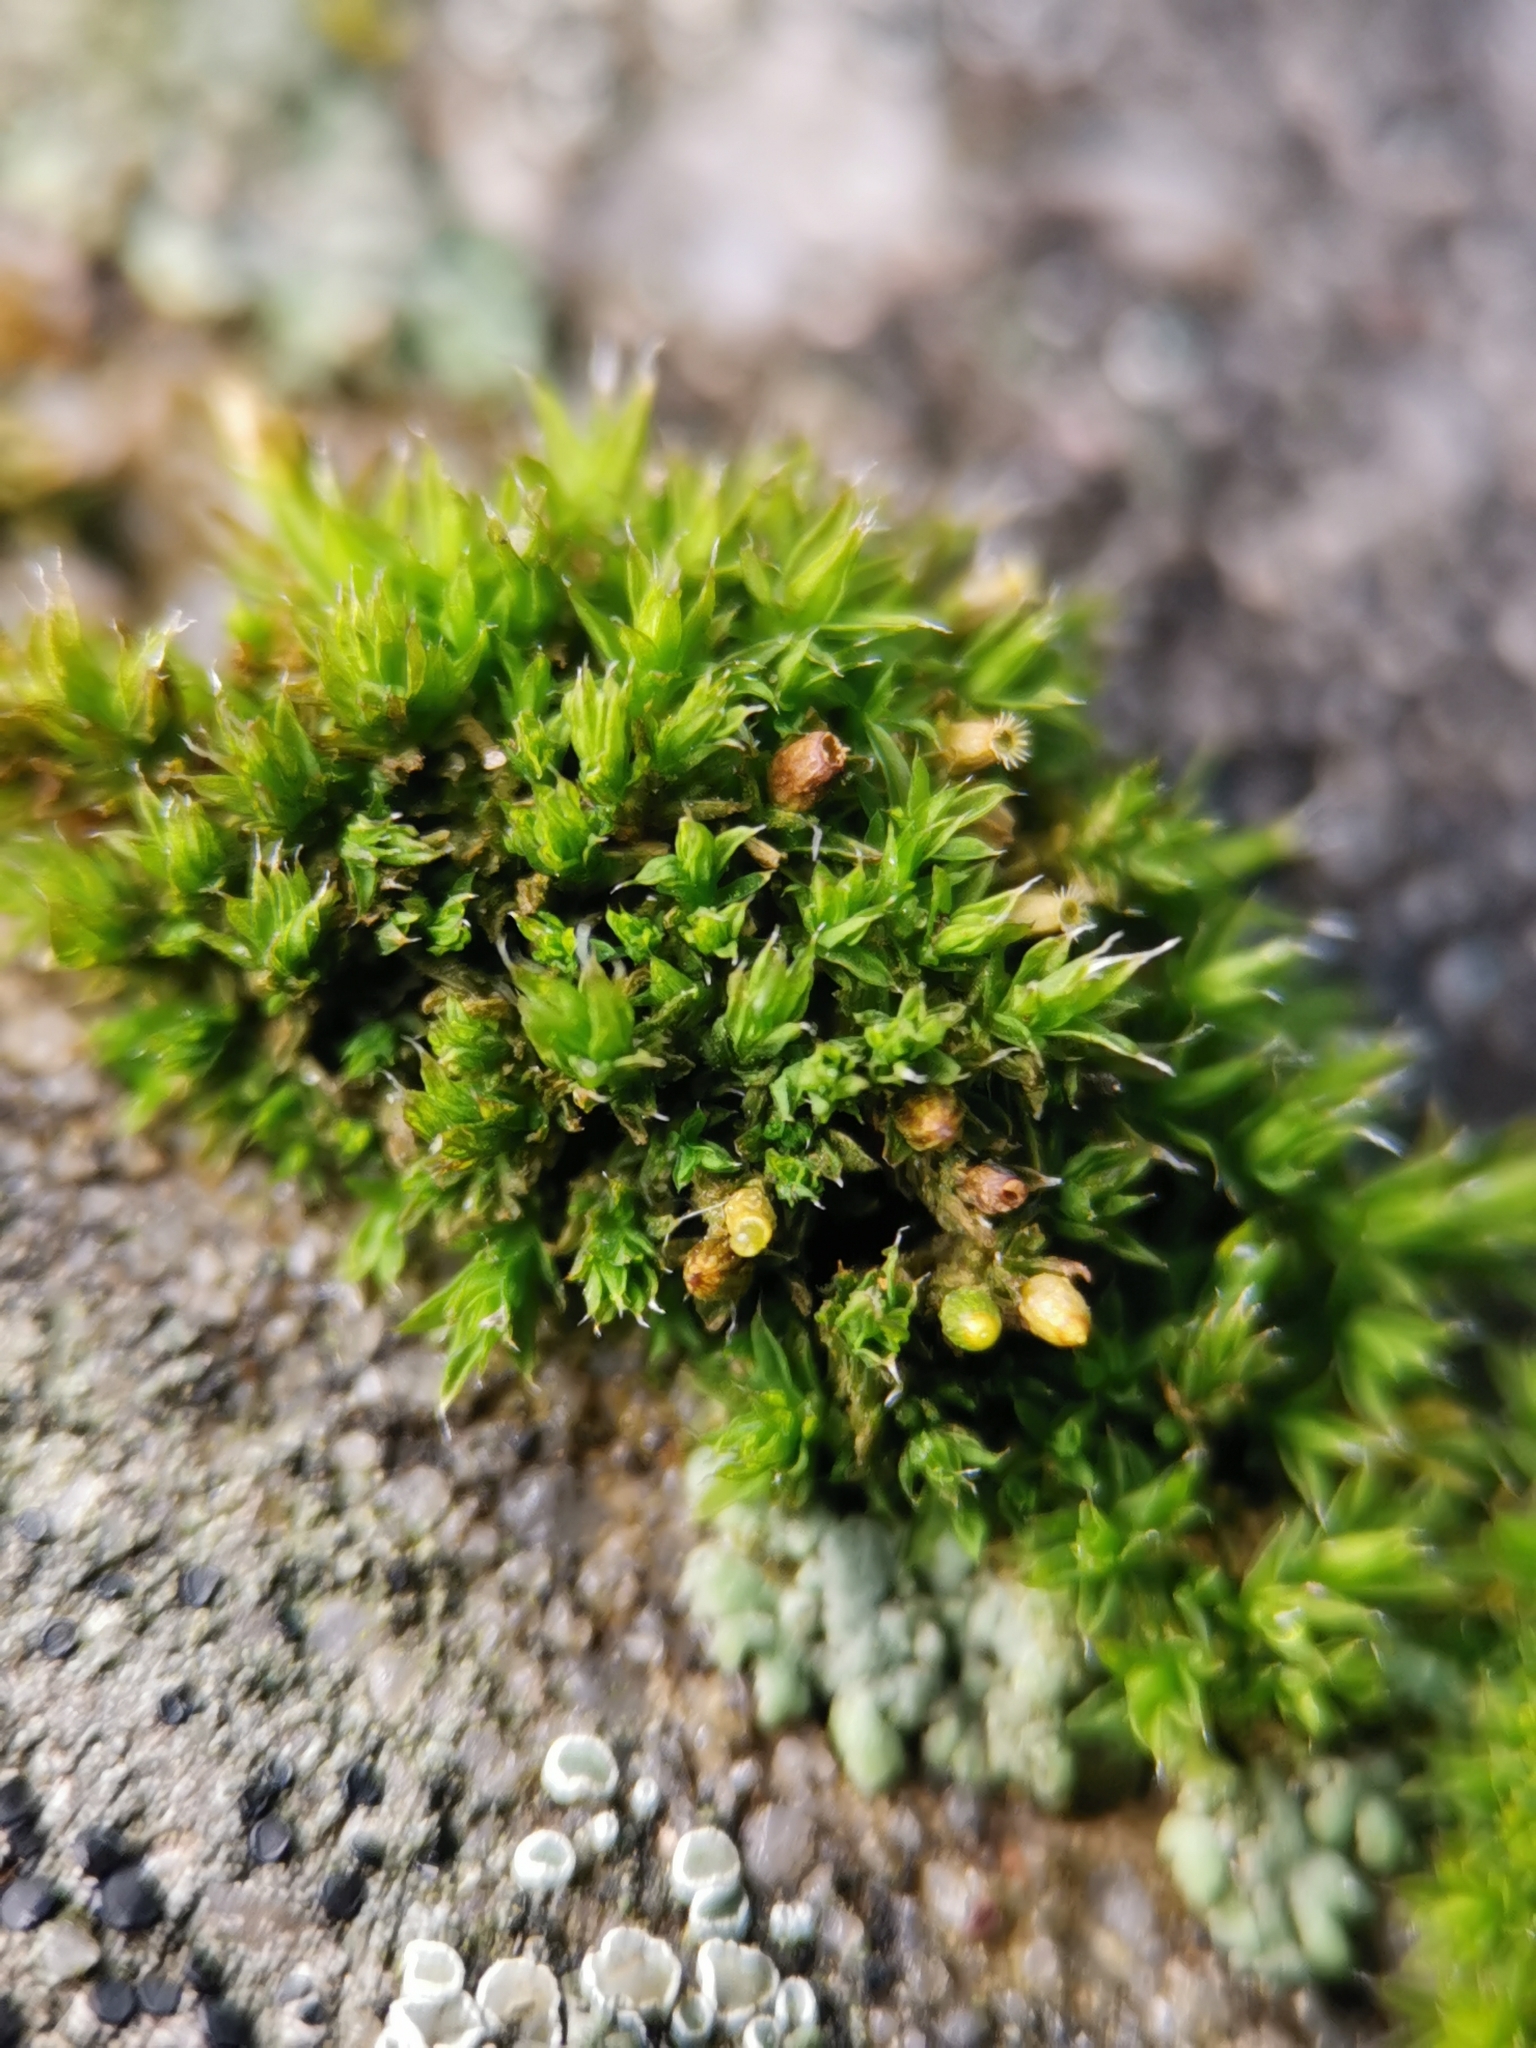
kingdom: Plantae
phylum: Bryophyta
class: Bryopsida
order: Orthotrichales
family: Orthotrichaceae
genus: Orthotrichum
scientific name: Orthotrichum diaphanum
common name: White-tipped bristle-moss
